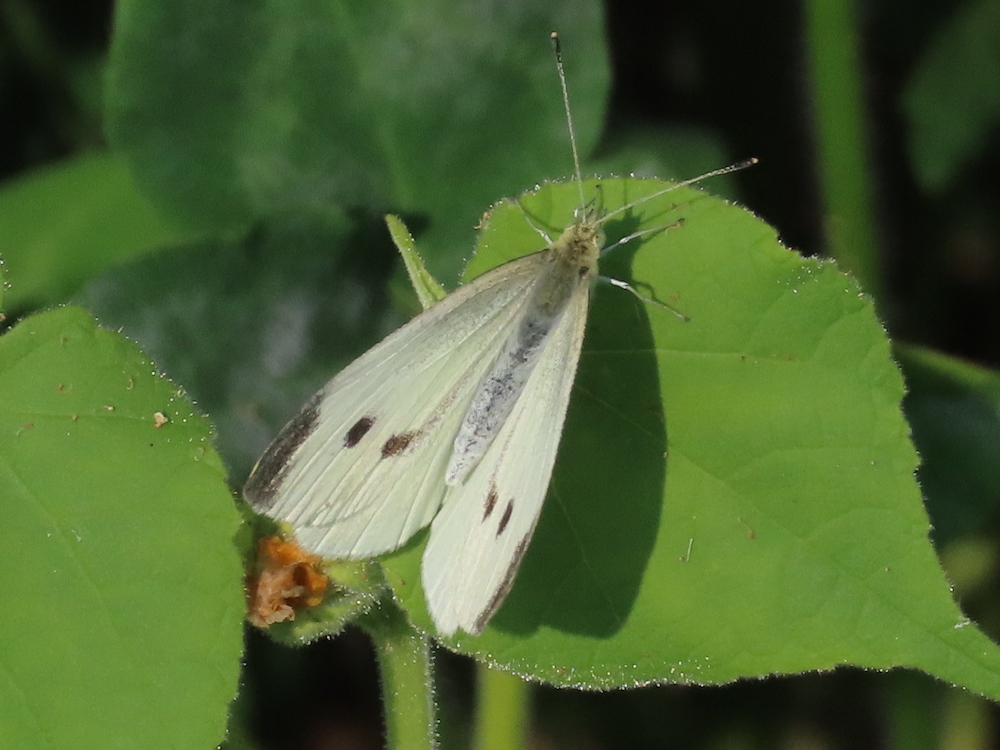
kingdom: Animalia
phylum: Arthropoda
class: Insecta
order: Lepidoptera
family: Pieridae
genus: Pieris
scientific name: Pieris rapae
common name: Small white
